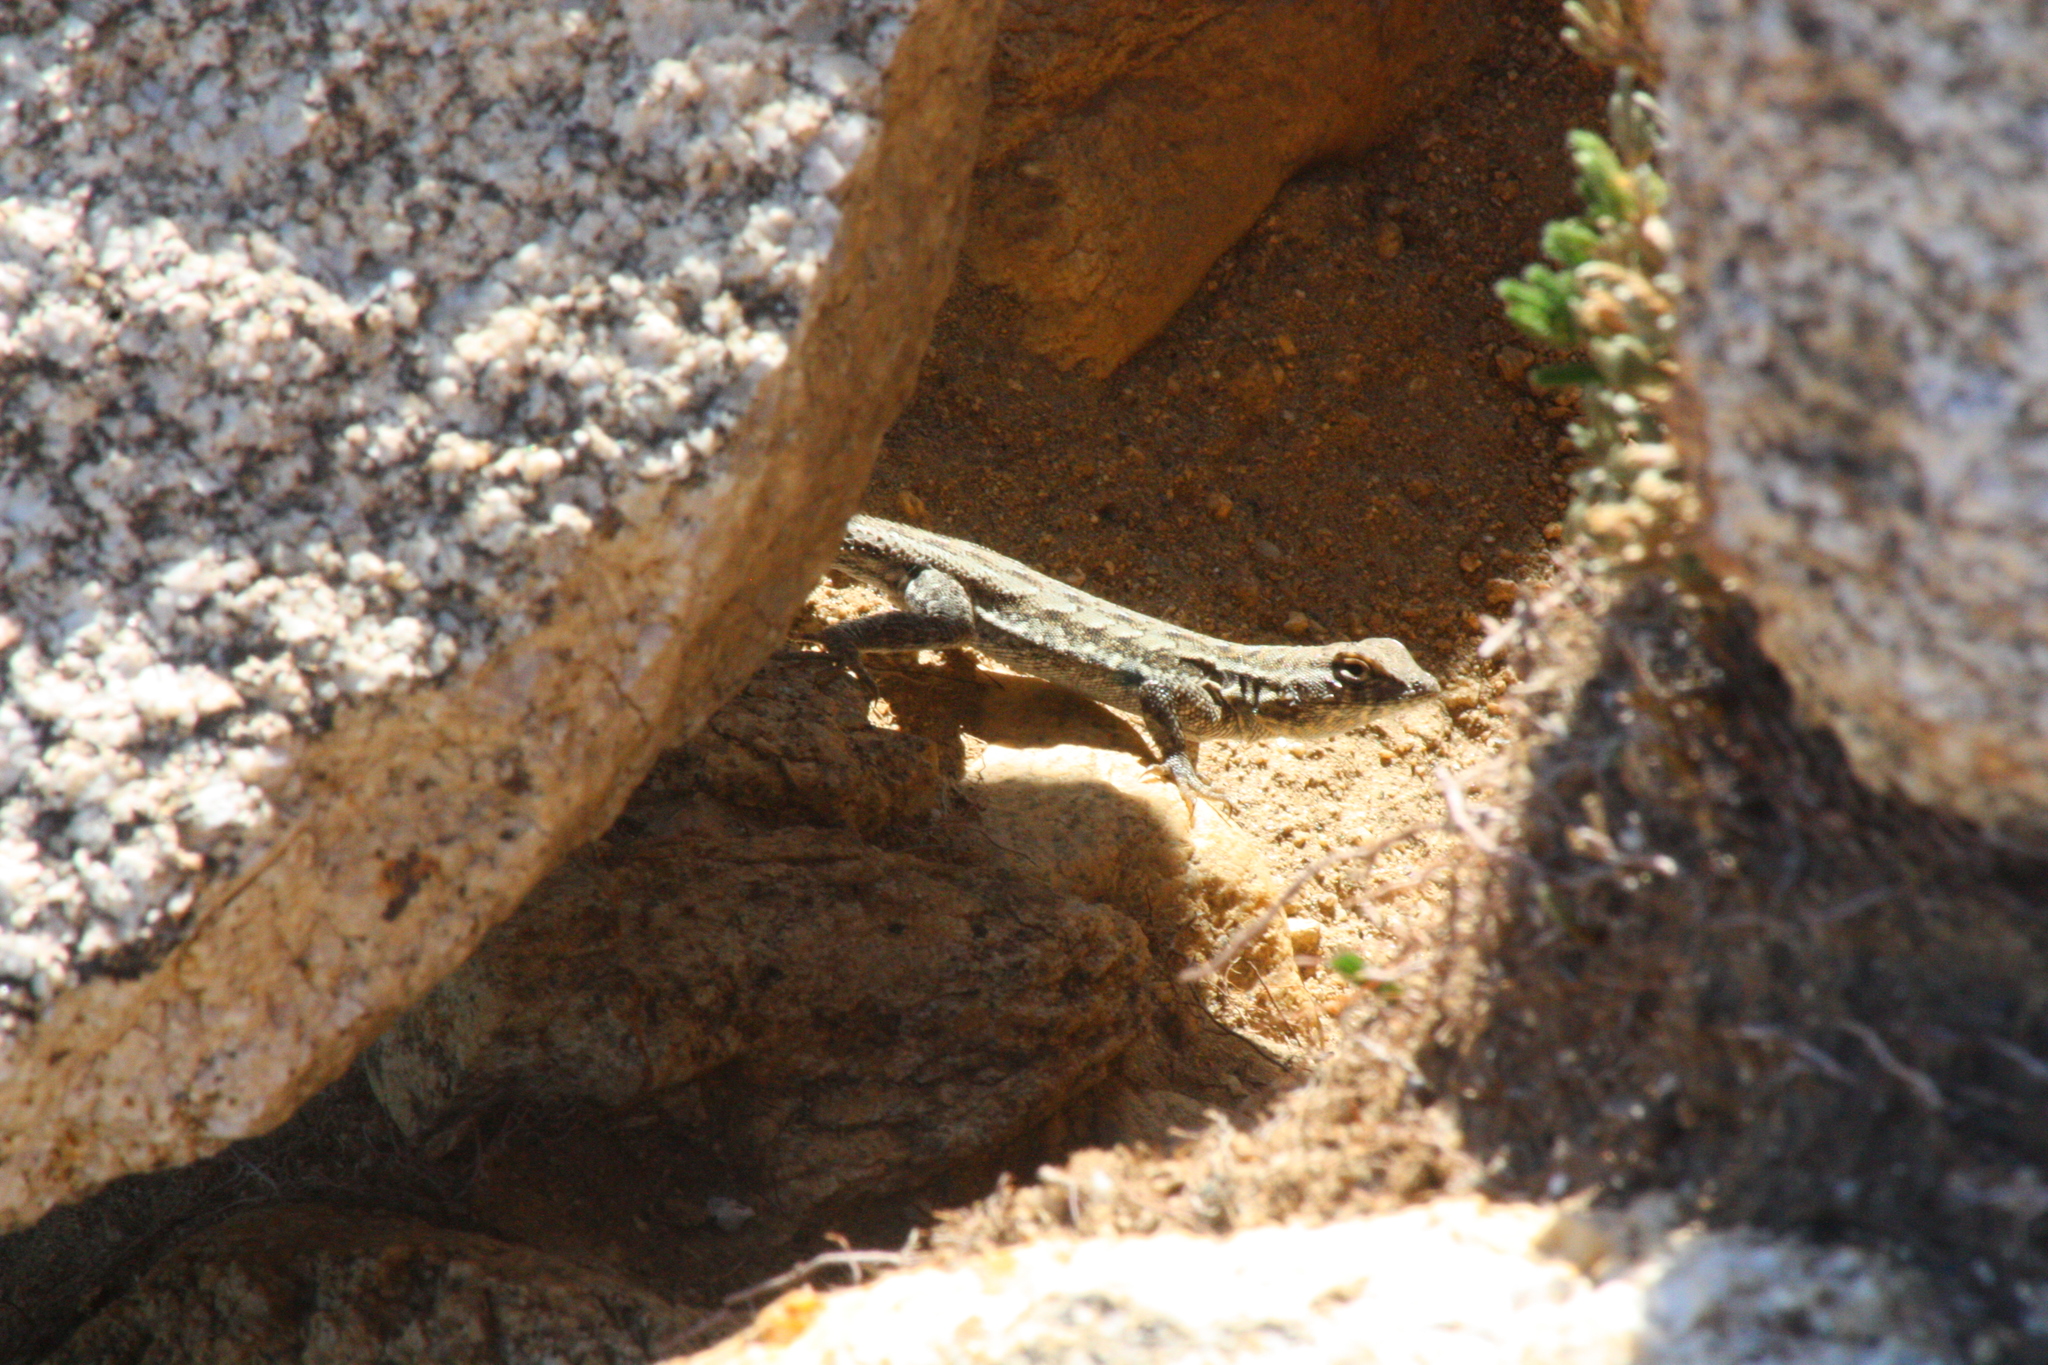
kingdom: Animalia
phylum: Chordata
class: Squamata
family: Phrynosomatidae
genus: Uta
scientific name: Uta stansburiana
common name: Side-blotched lizard
